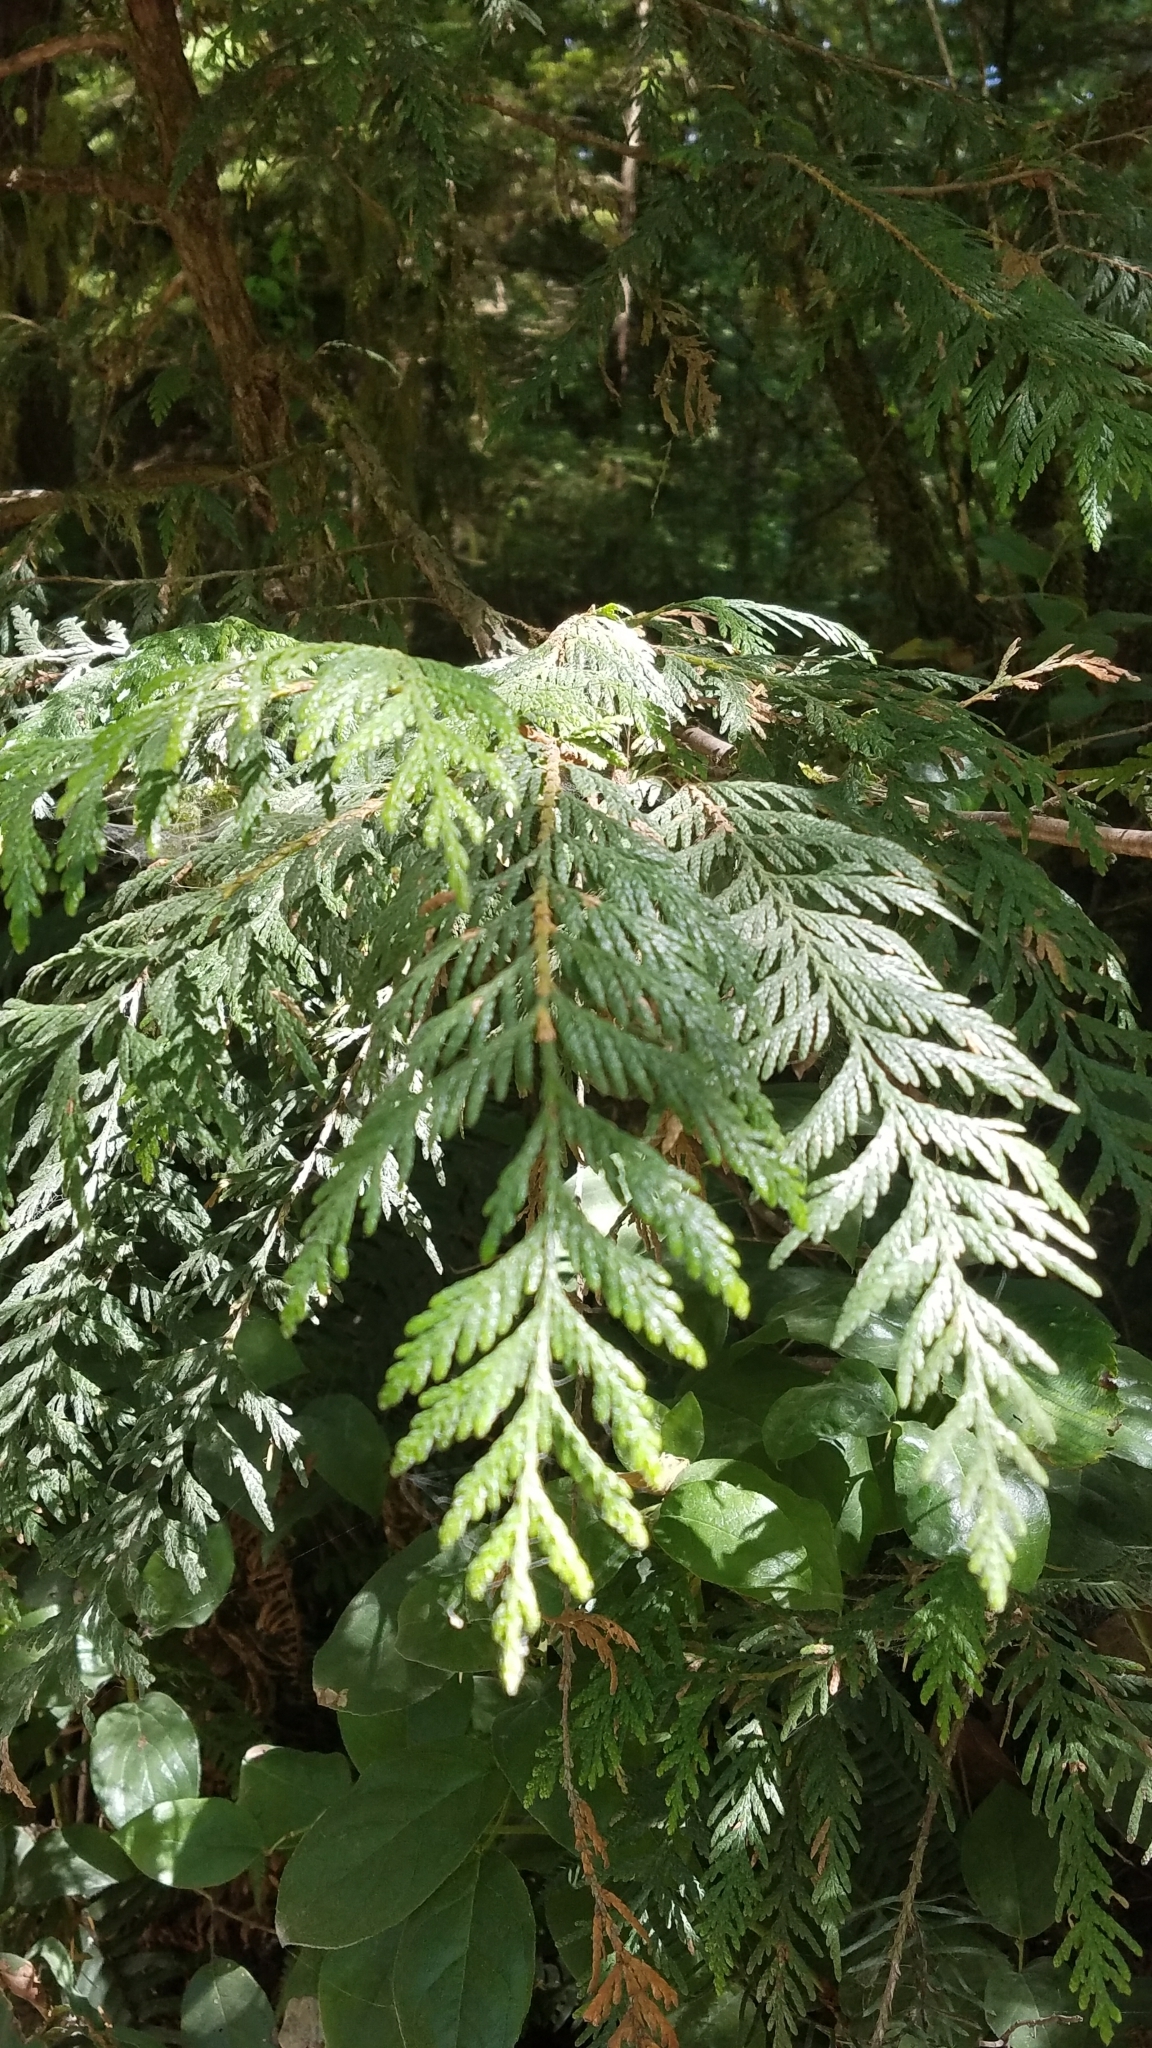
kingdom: Plantae
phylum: Tracheophyta
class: Pinopsida
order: Pinales
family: Cupressaceae
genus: Thuja
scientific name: Thuja plicata
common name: Western red-cedar
